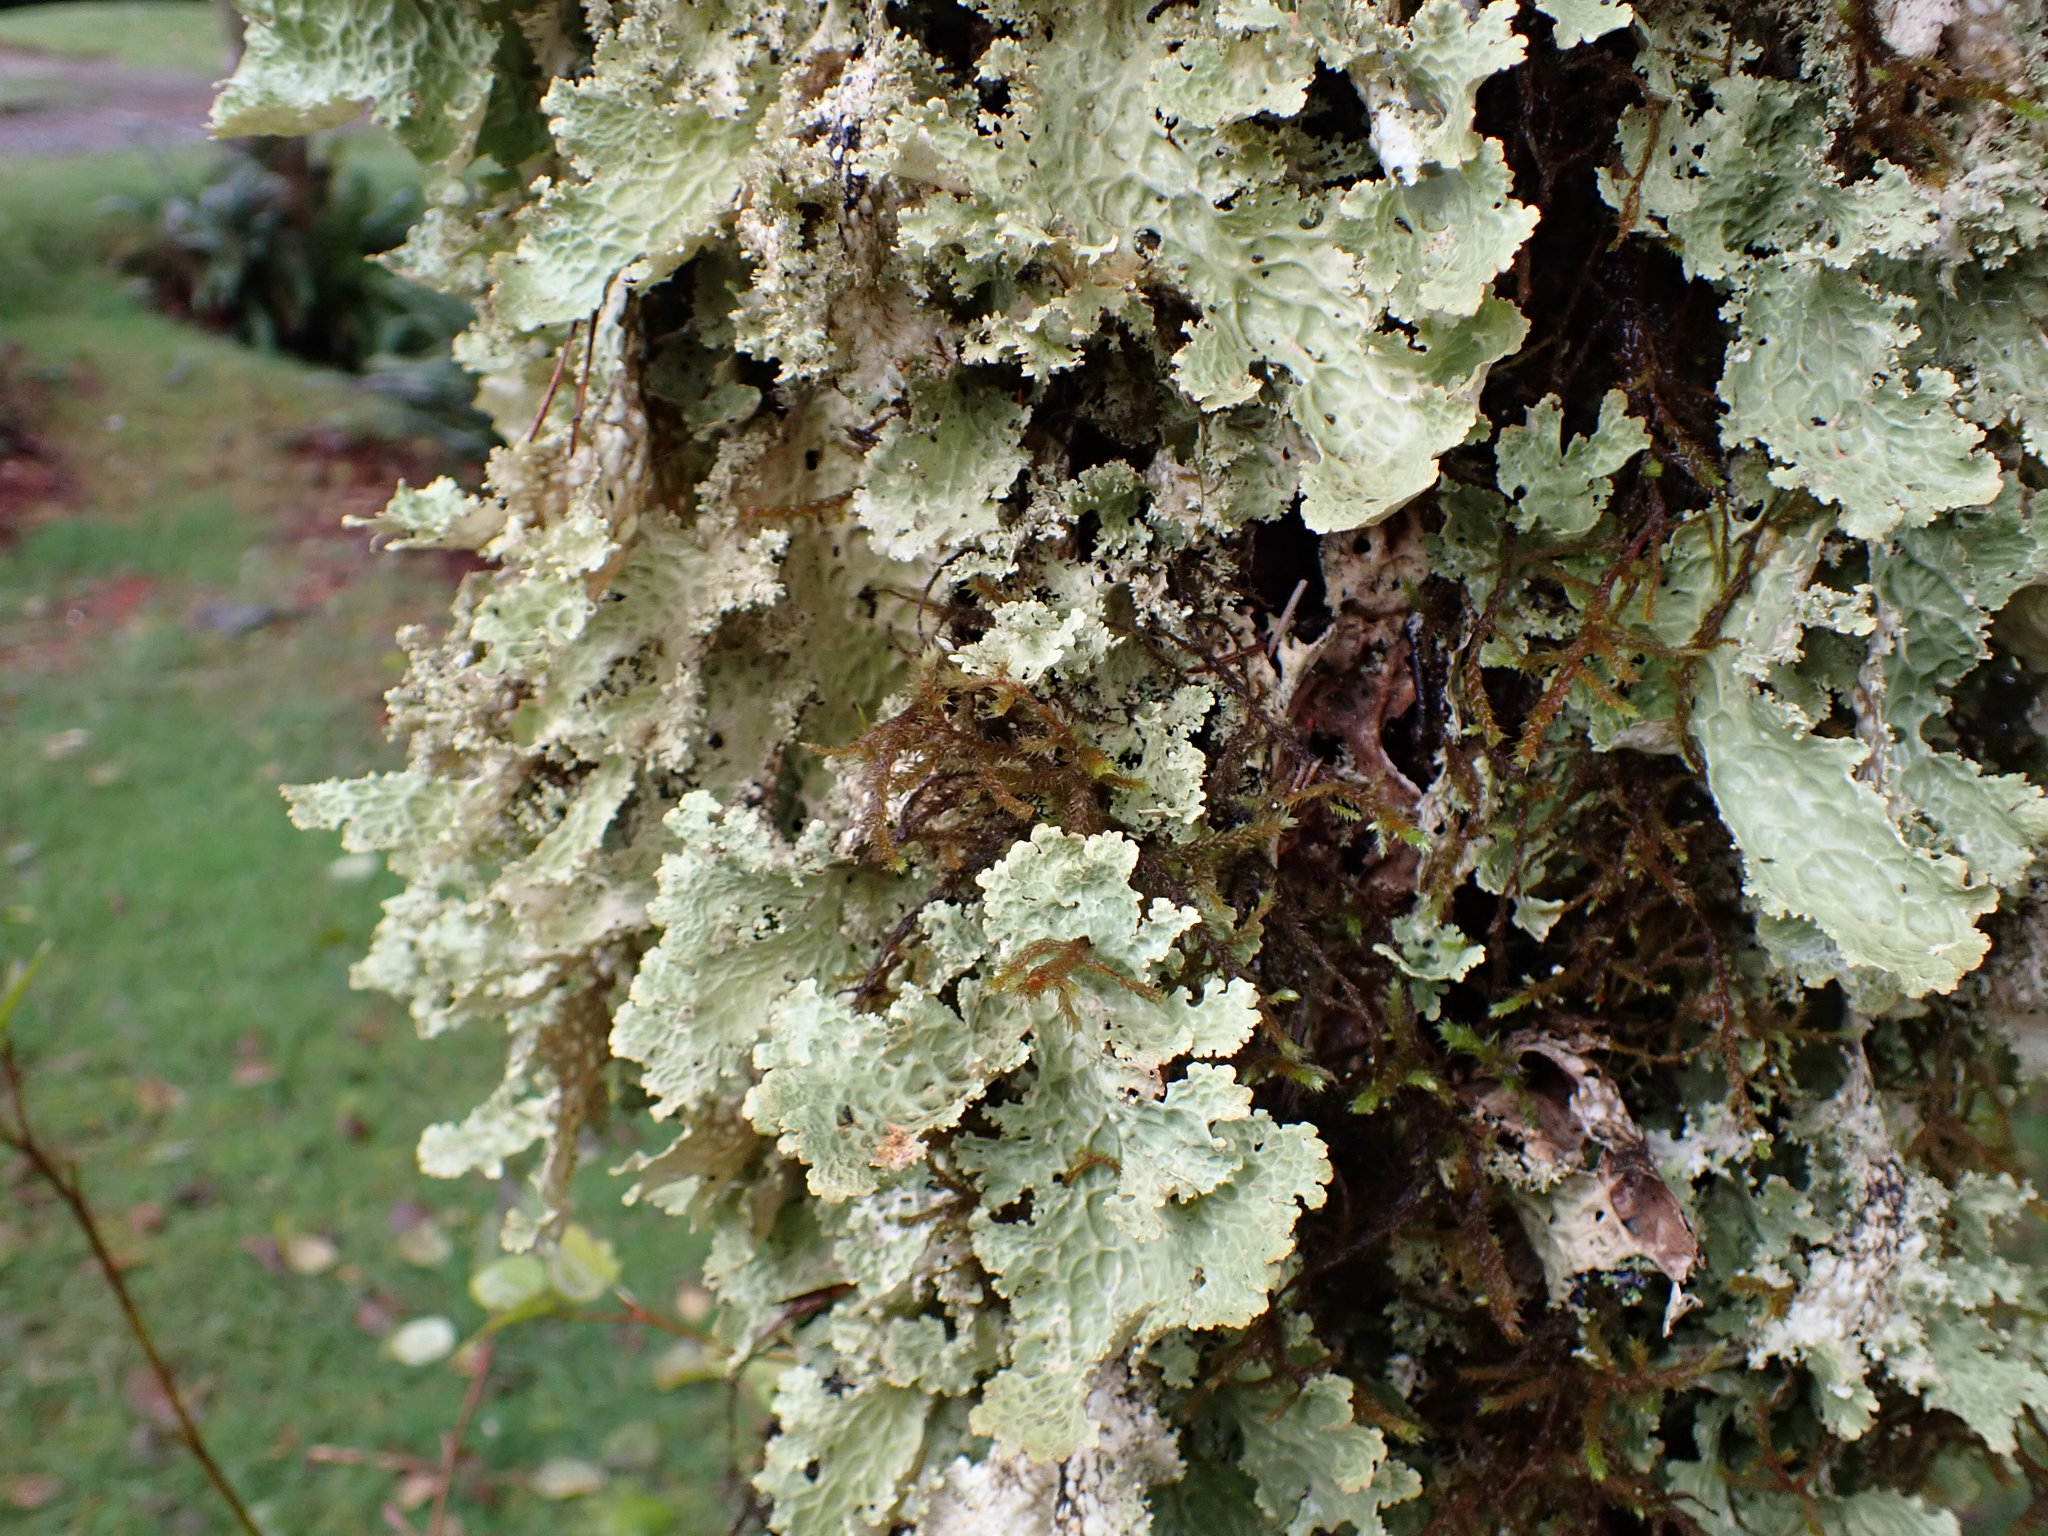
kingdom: Fungi
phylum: Ascomycota
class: Lecanoromycetes
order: Peltigerales
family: Lobariaceae
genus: Lobaria
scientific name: Lobaria oregana
